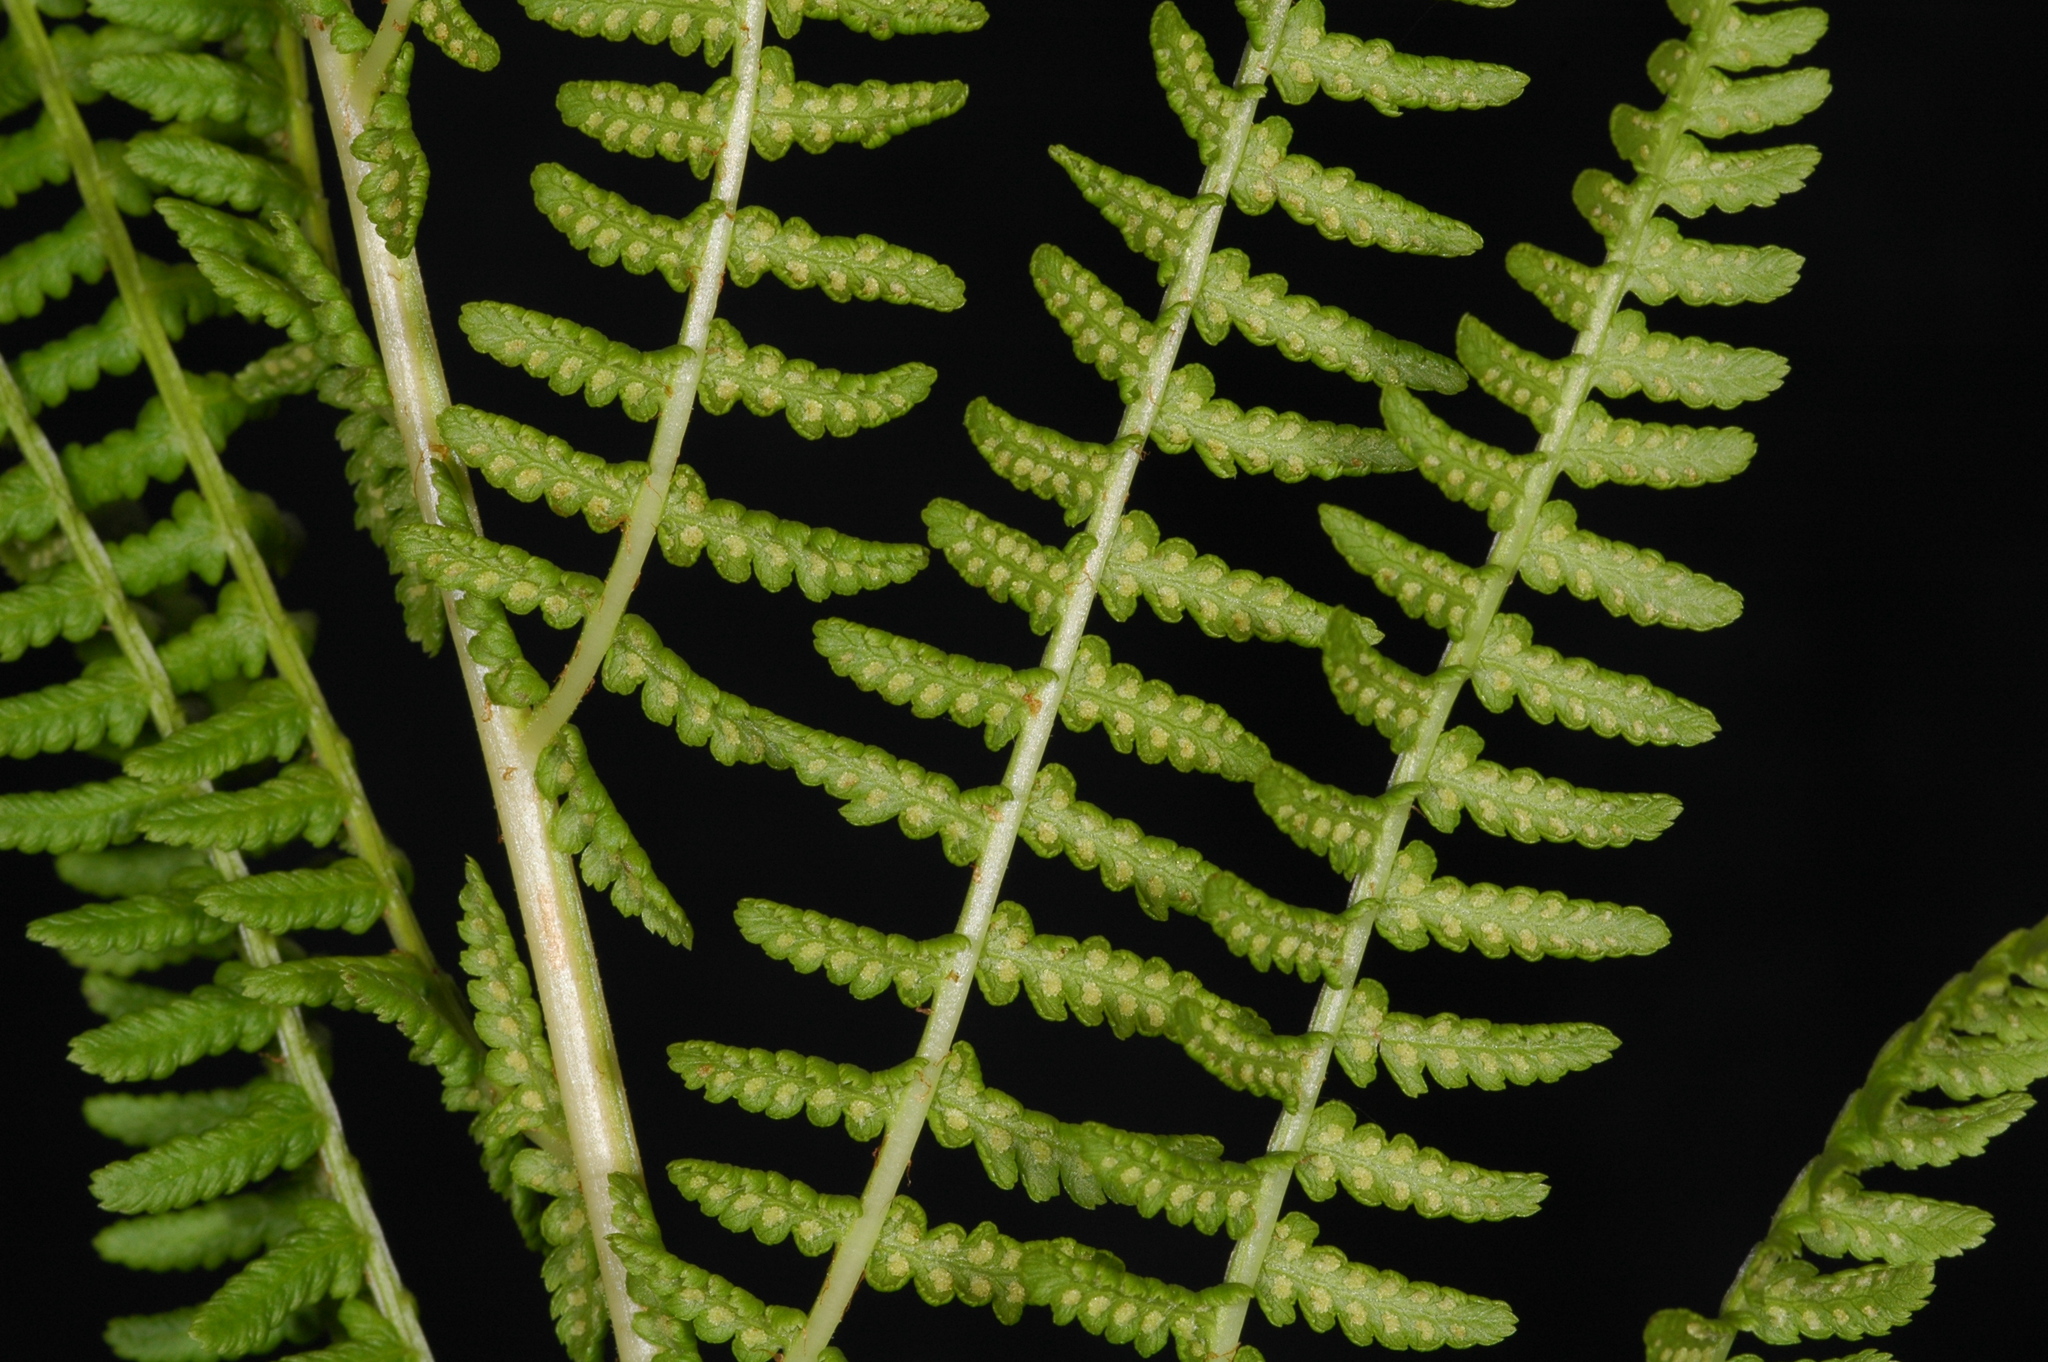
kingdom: Plantae
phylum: Tracheophyta
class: Polypodiopsida
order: Polypodiales
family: Athyriaceae
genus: Athyrium
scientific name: Athyrium americanum
